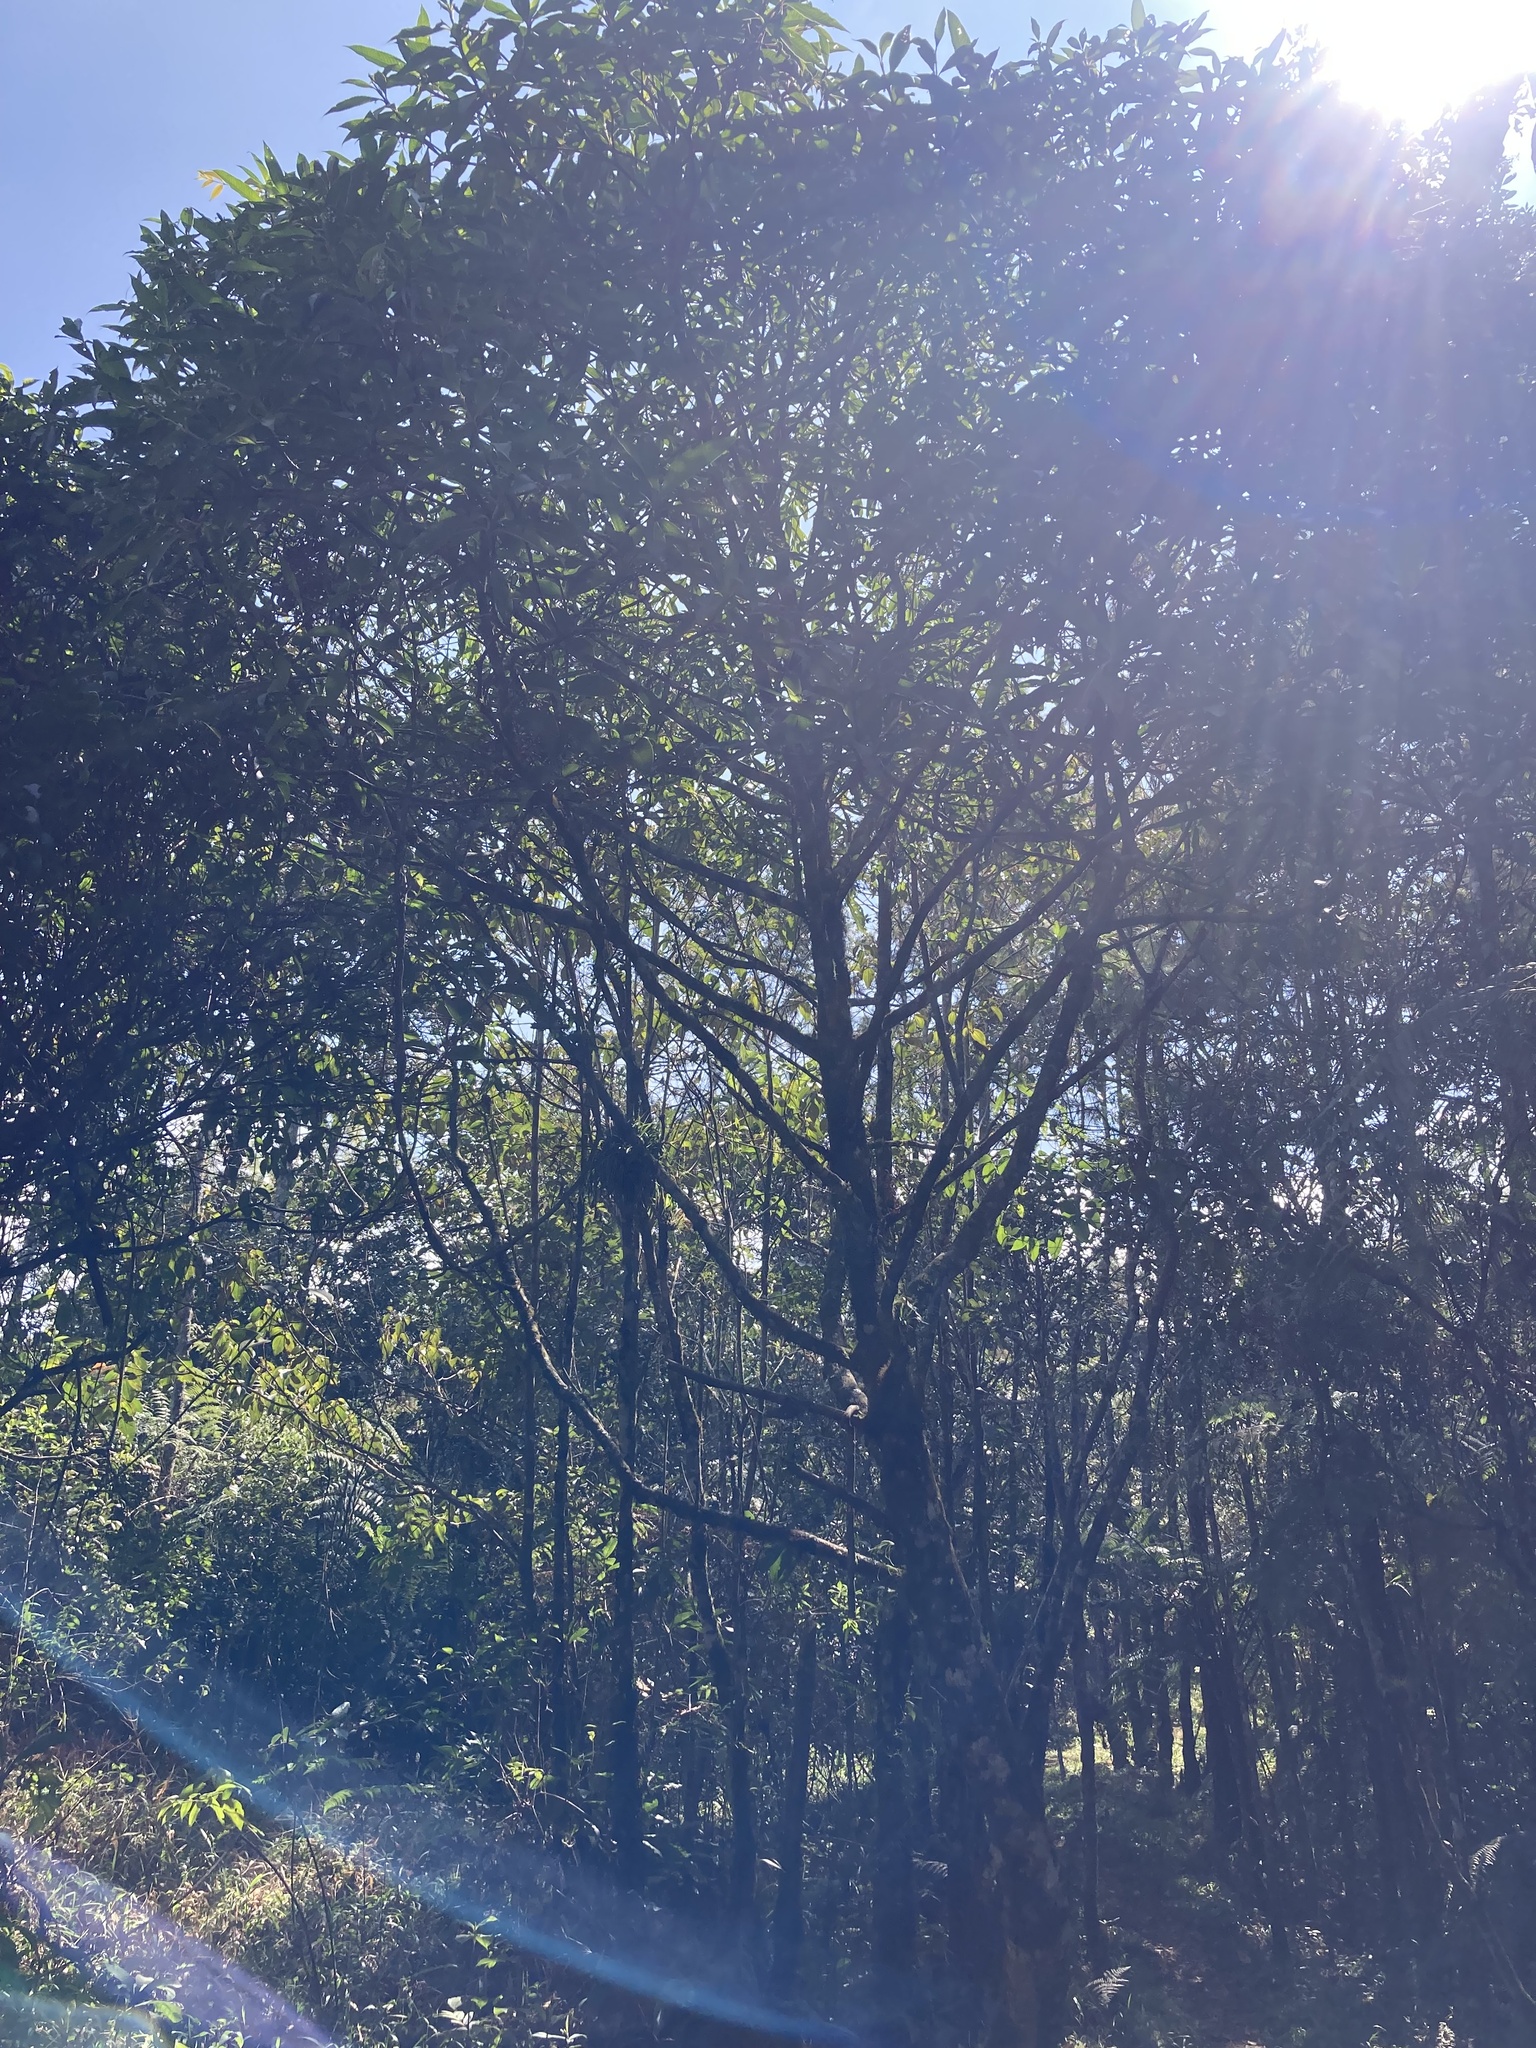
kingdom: Plantae
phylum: Tracheophyta
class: Magnoliopsida
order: Chloranthales
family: Chloranthaceae
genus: Hedyosmum
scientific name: Hedyosmum mexicanum
